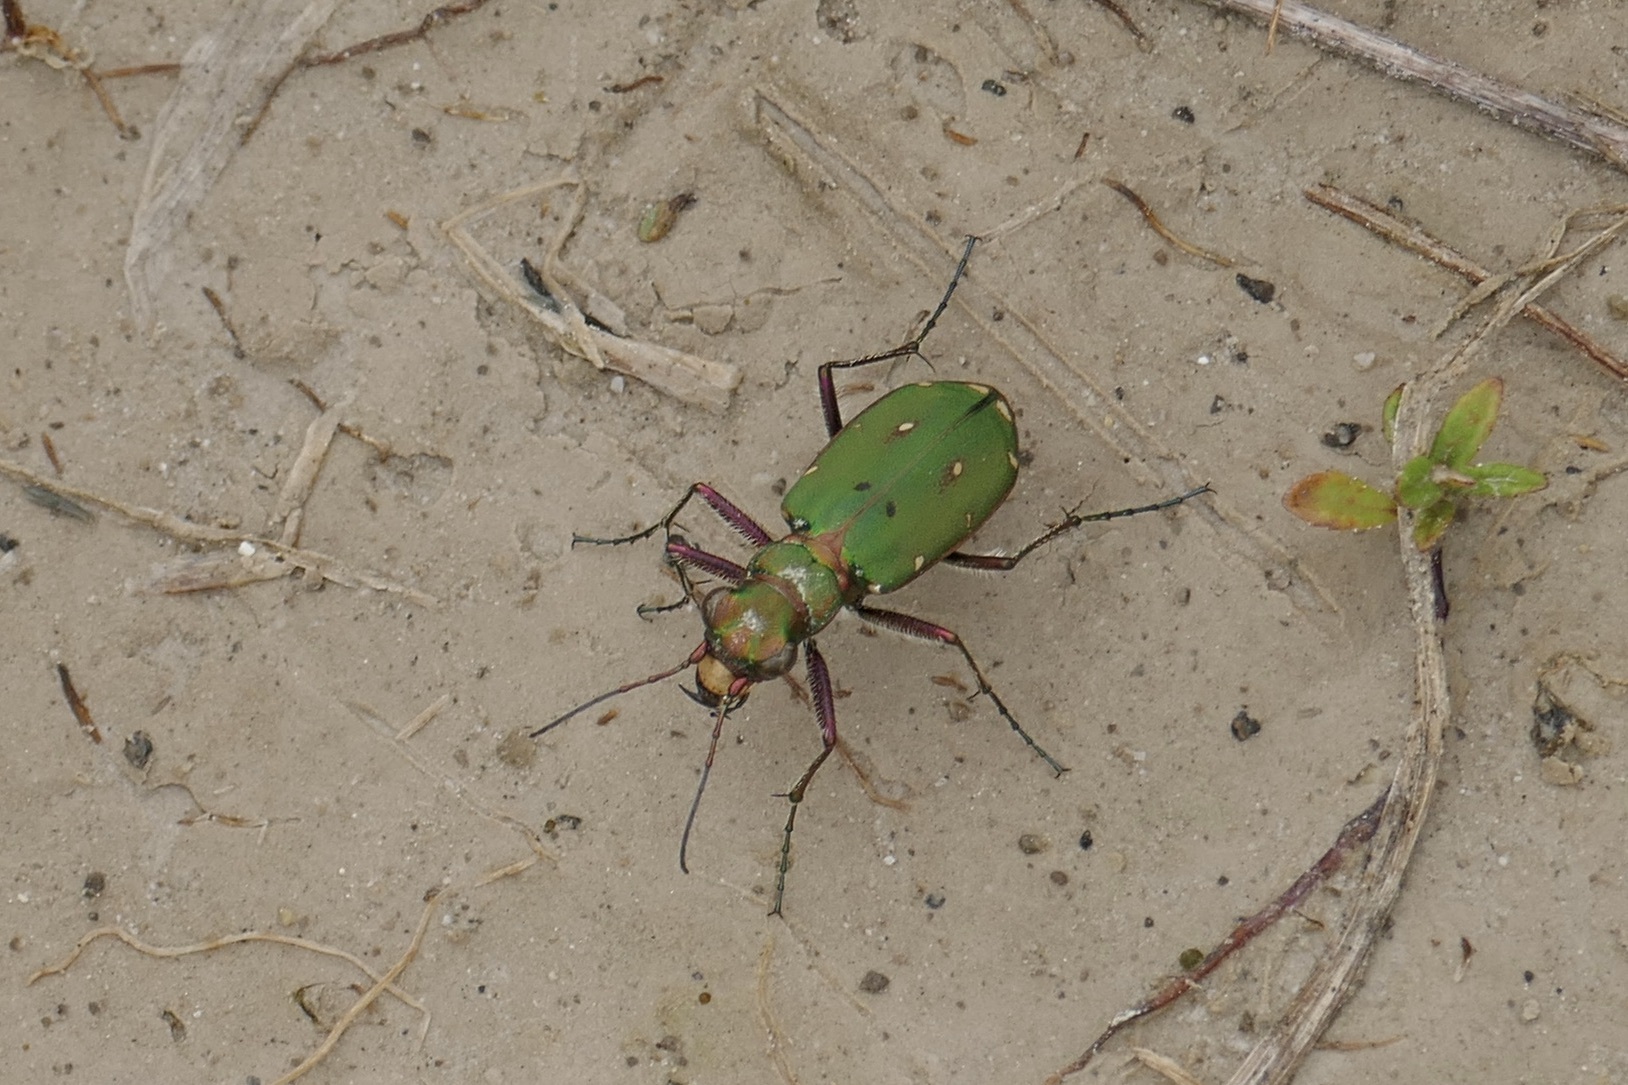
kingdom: Animalia
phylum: Arthropoda
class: Insecta
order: Coleoptera
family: Carabidae
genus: Cicindela
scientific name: Cicindela campestris
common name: Common tiger beetle
